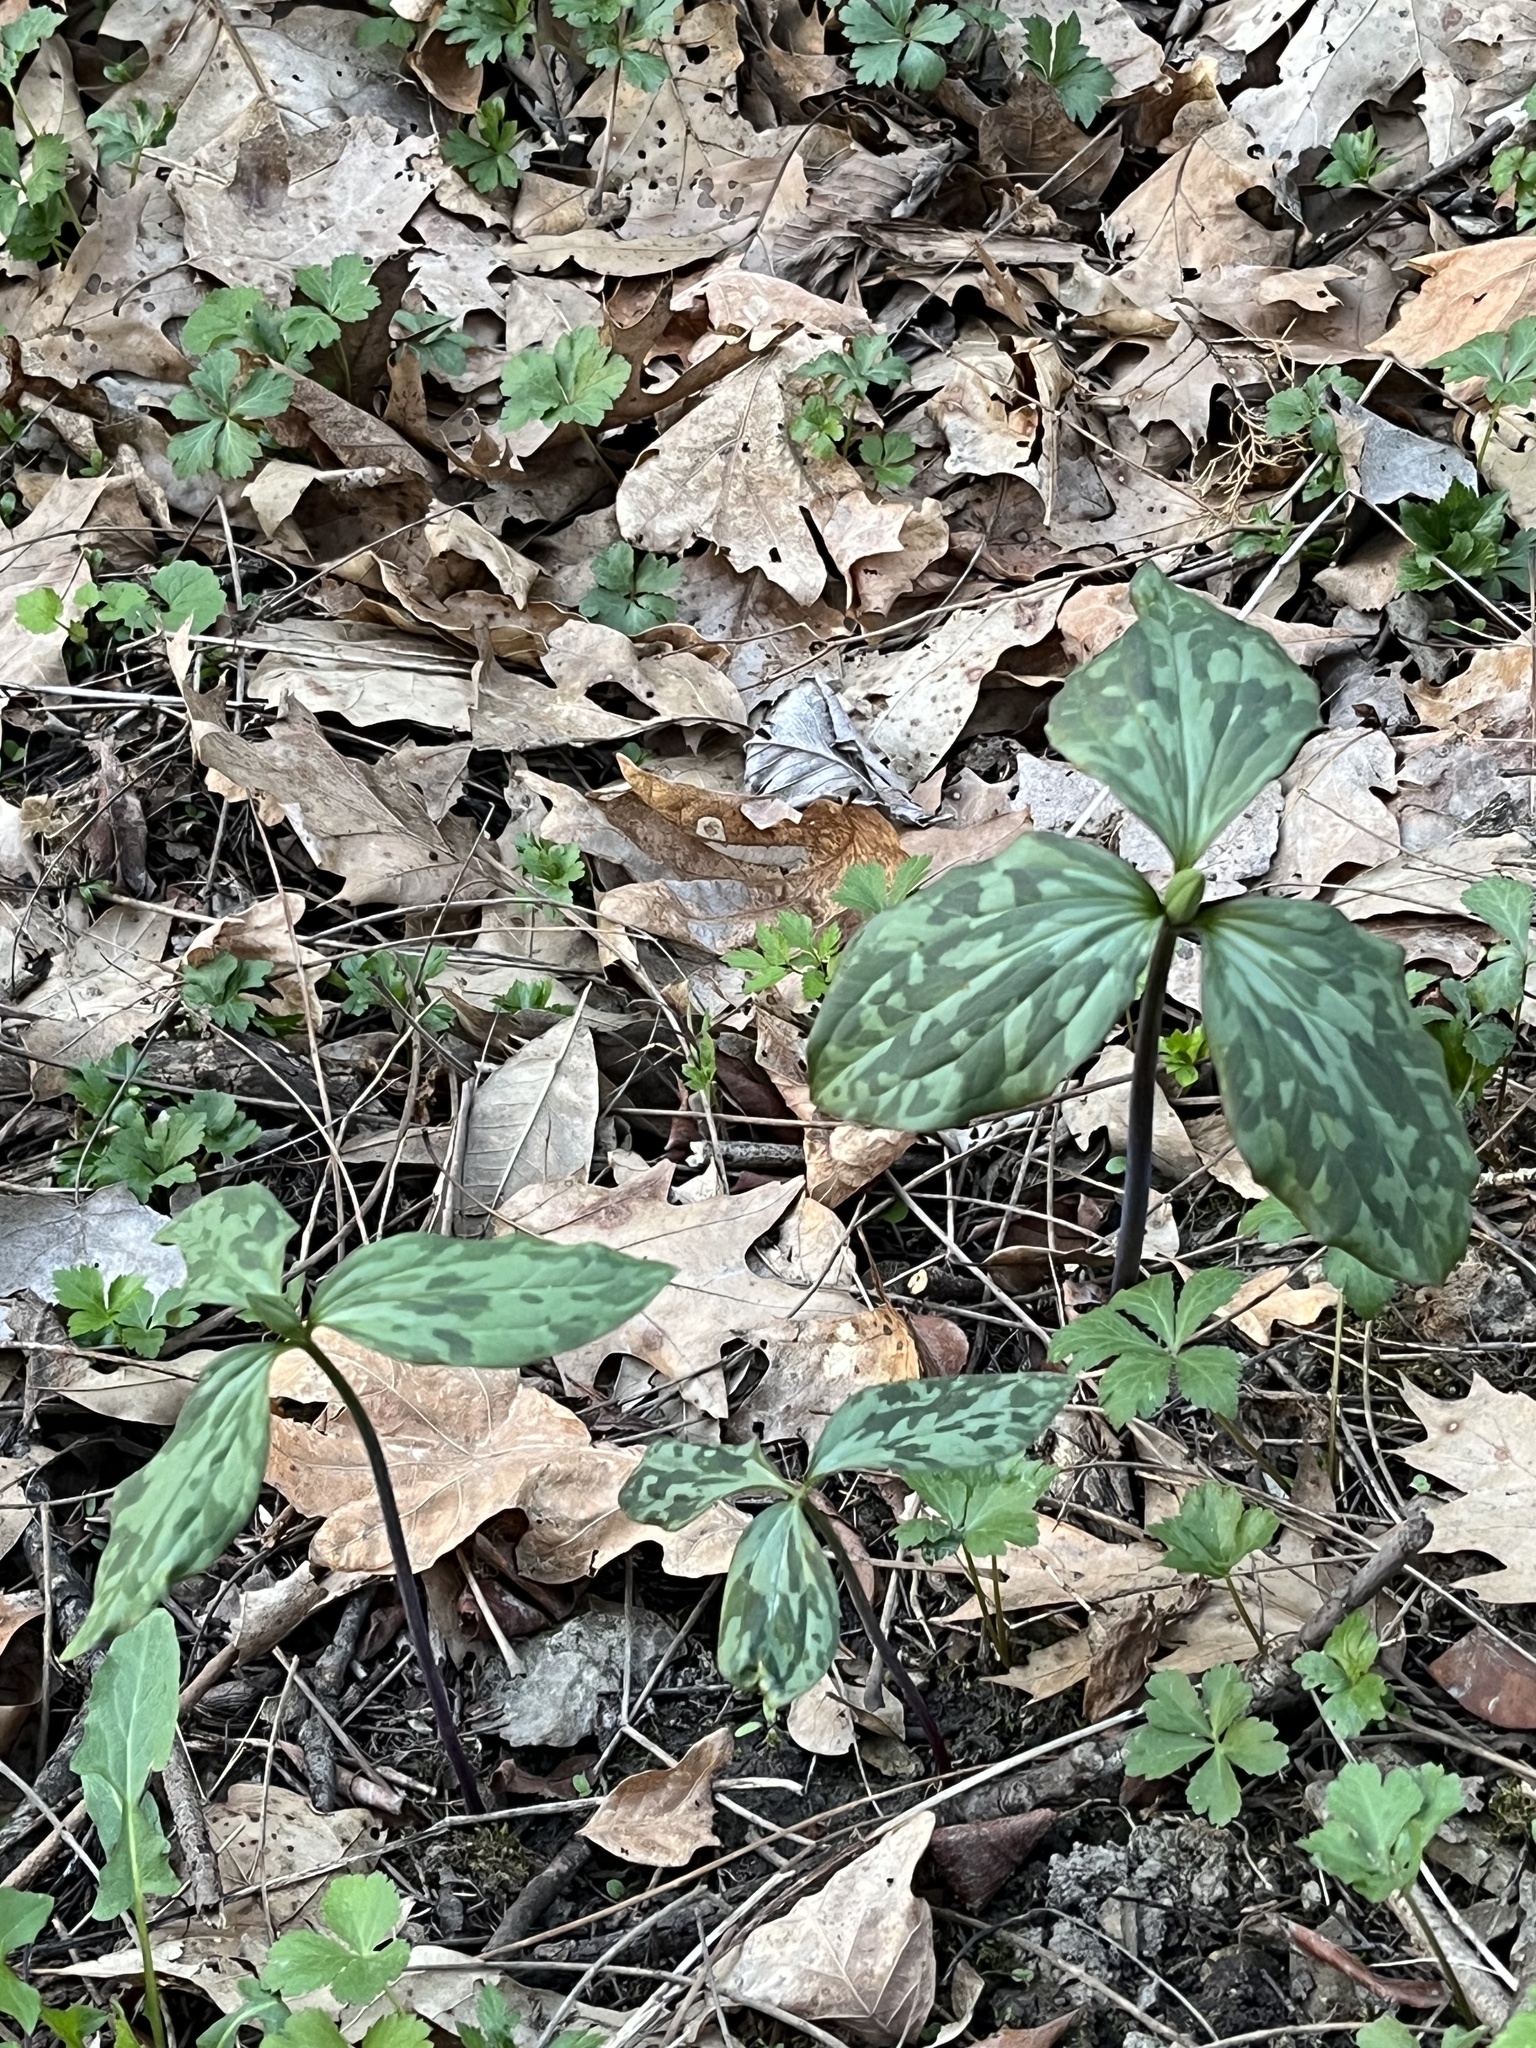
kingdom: Plantae
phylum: Tracheophyta
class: Liliopsida
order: Liliales
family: Melanthiaceae
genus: Trillium
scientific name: Trillium recurvatum
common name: Bloody butcher
